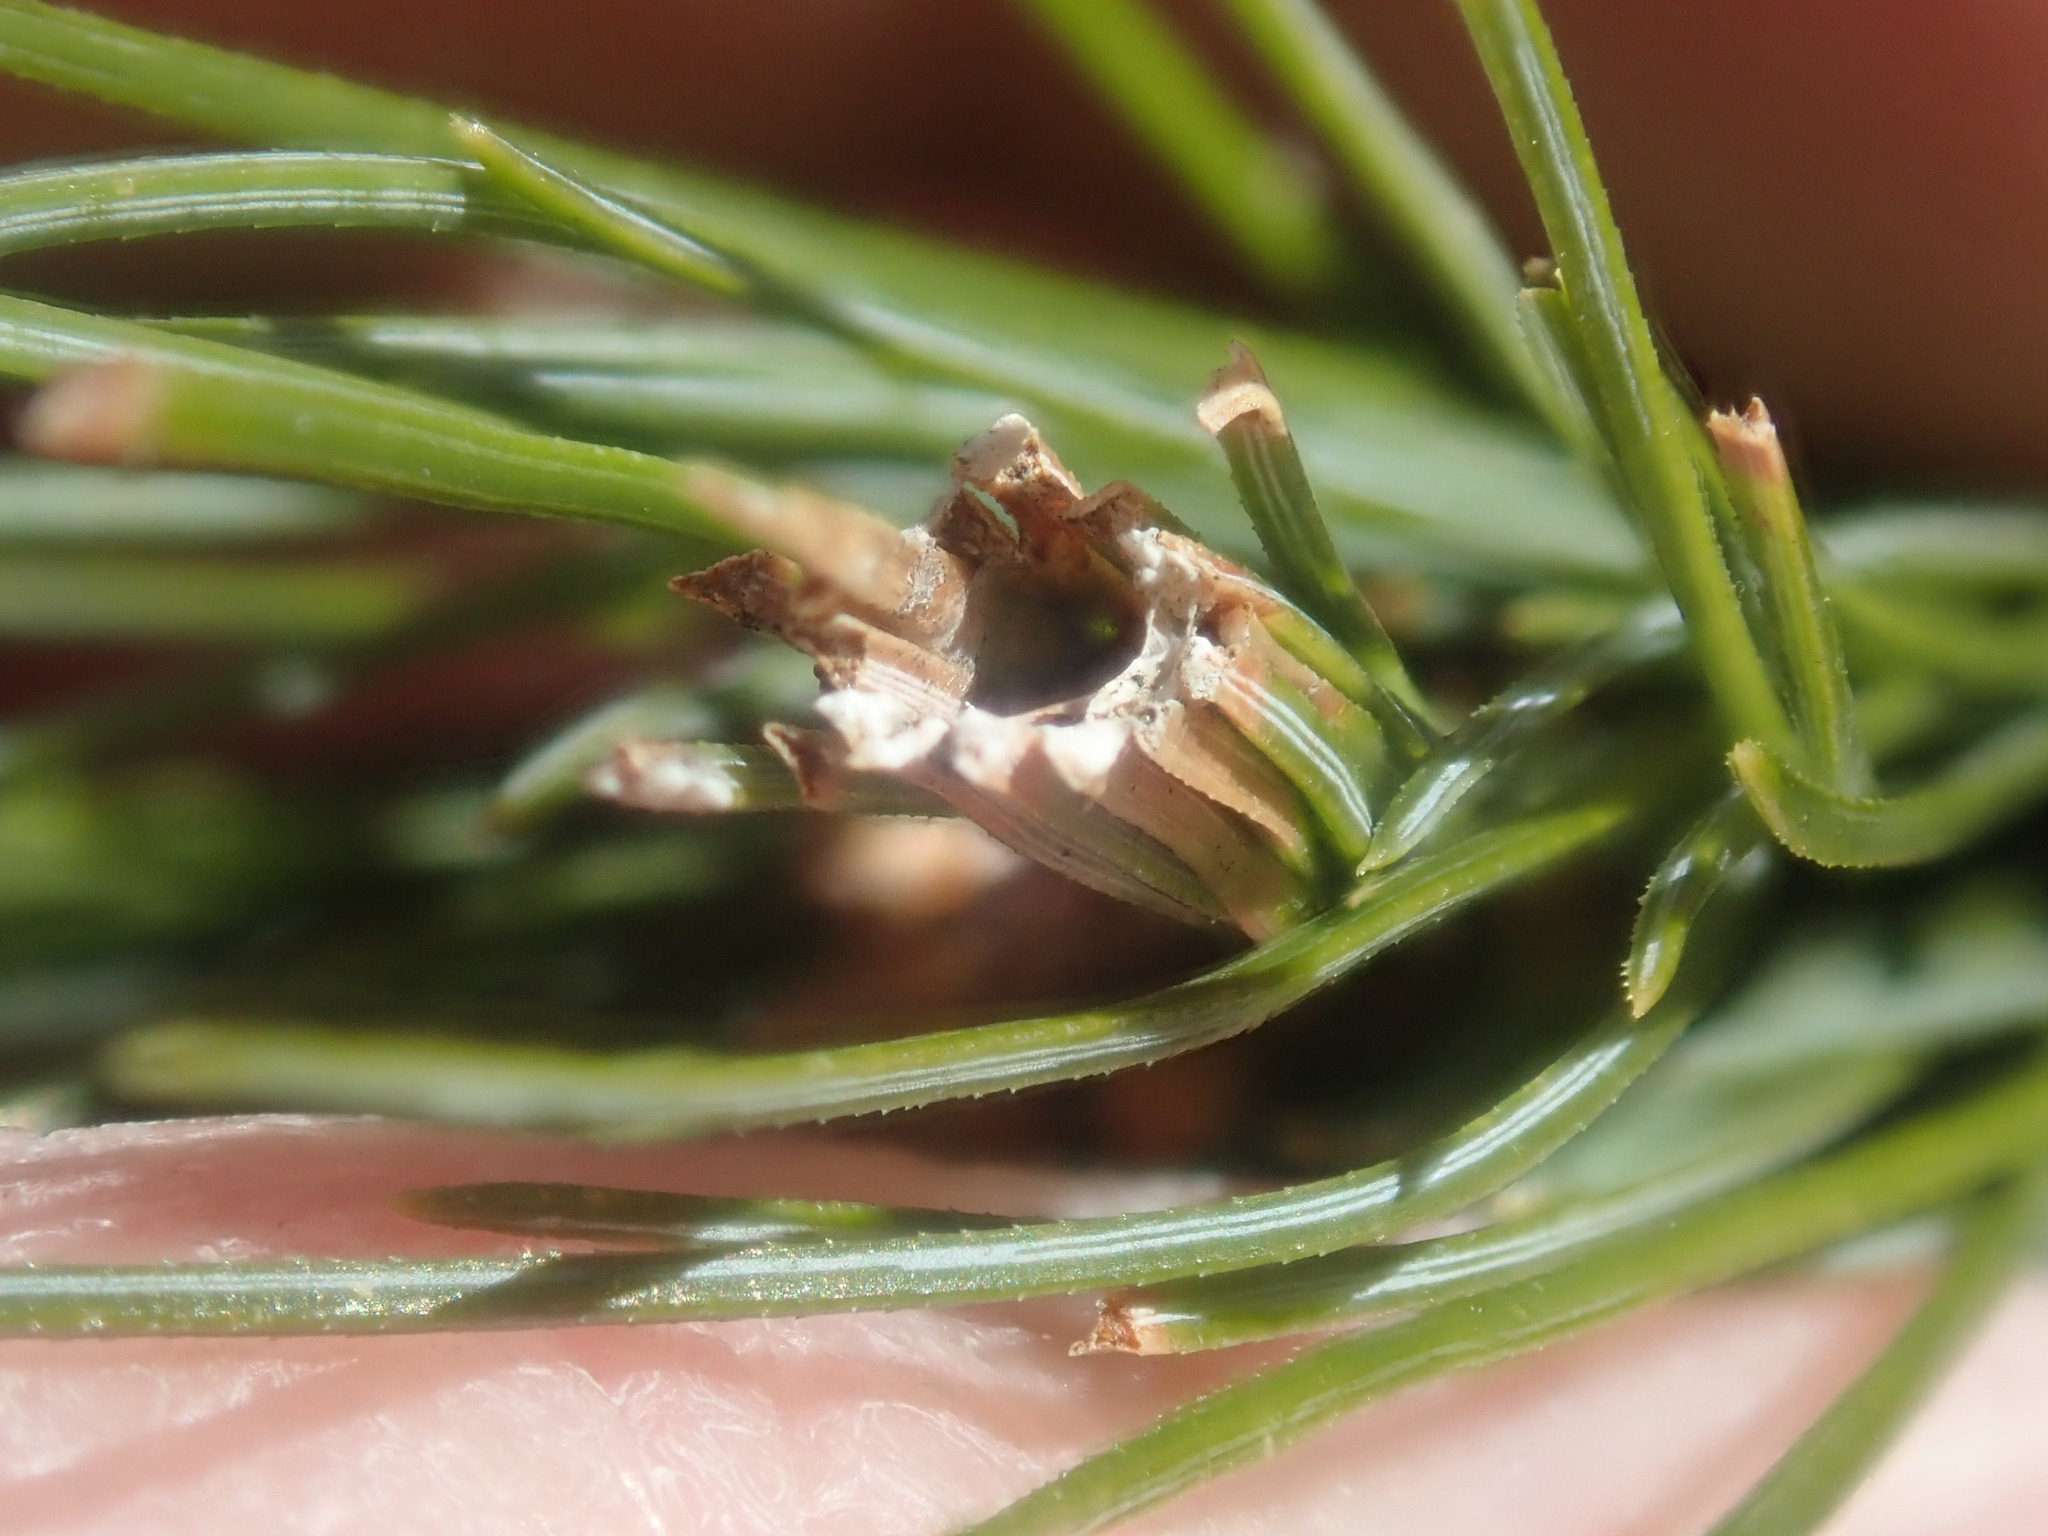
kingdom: Animalia
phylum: Arthropoda
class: Insecta
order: Lepidoptera
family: Tortricidae
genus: Argyrotaenia
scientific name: Argyrotaenia pinatubana
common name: Pine tube moth
